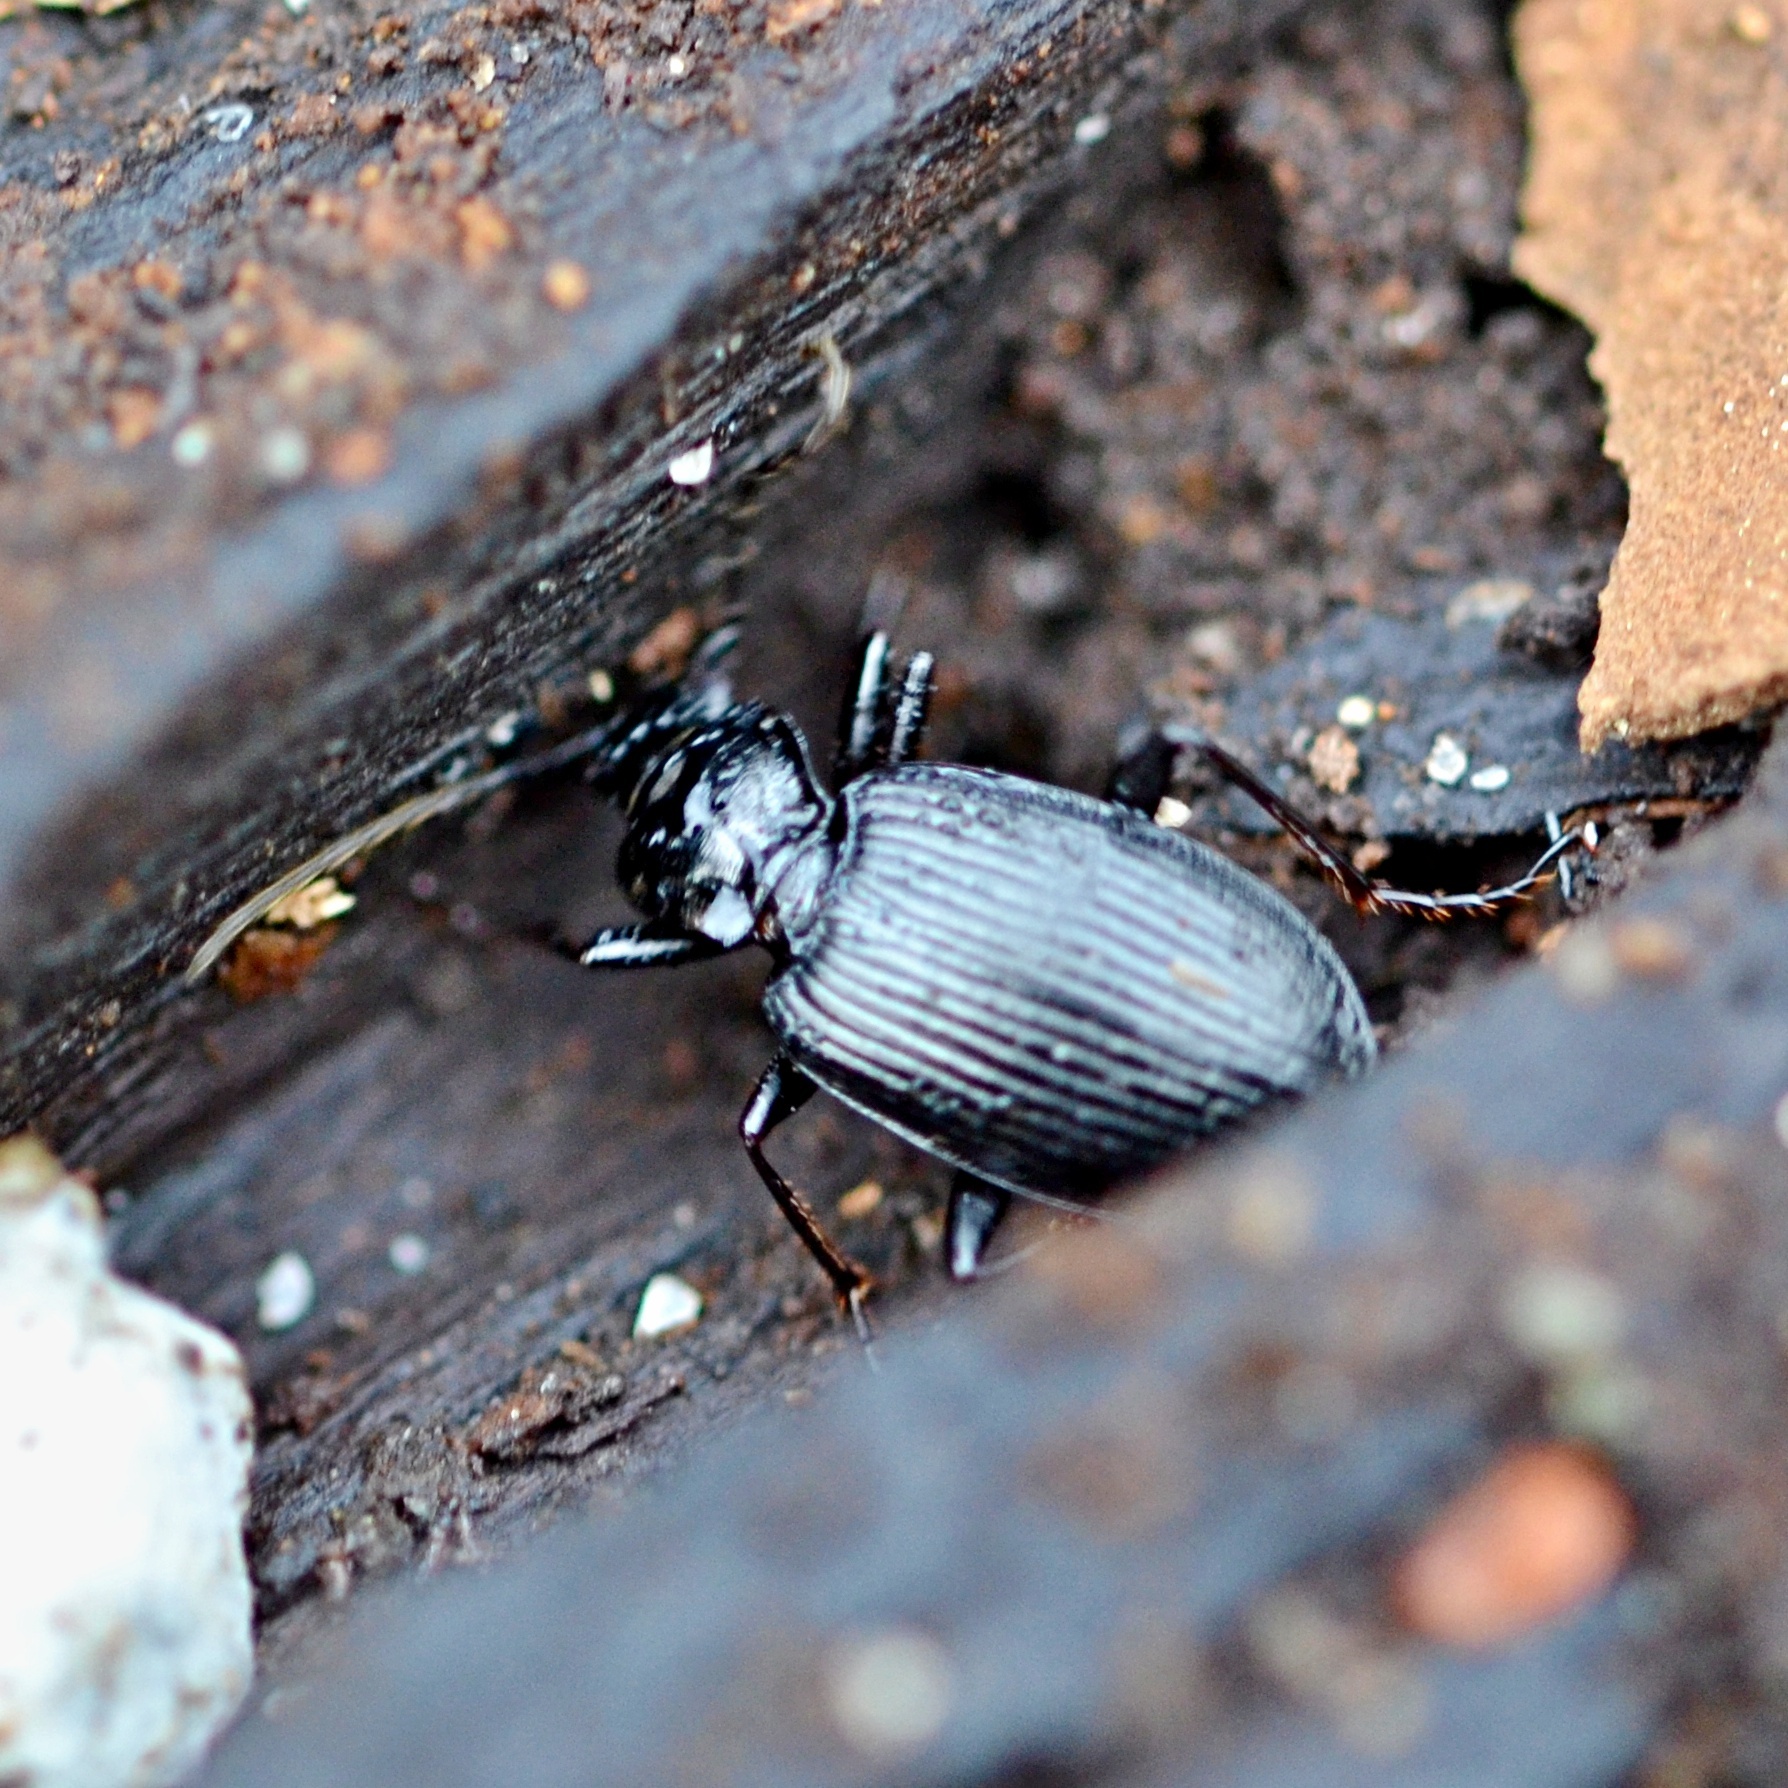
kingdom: Animalia
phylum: Arthropoda
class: Insecta
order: Coleoptera
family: Carabidae
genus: Platynus
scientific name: Platynus assimilis
